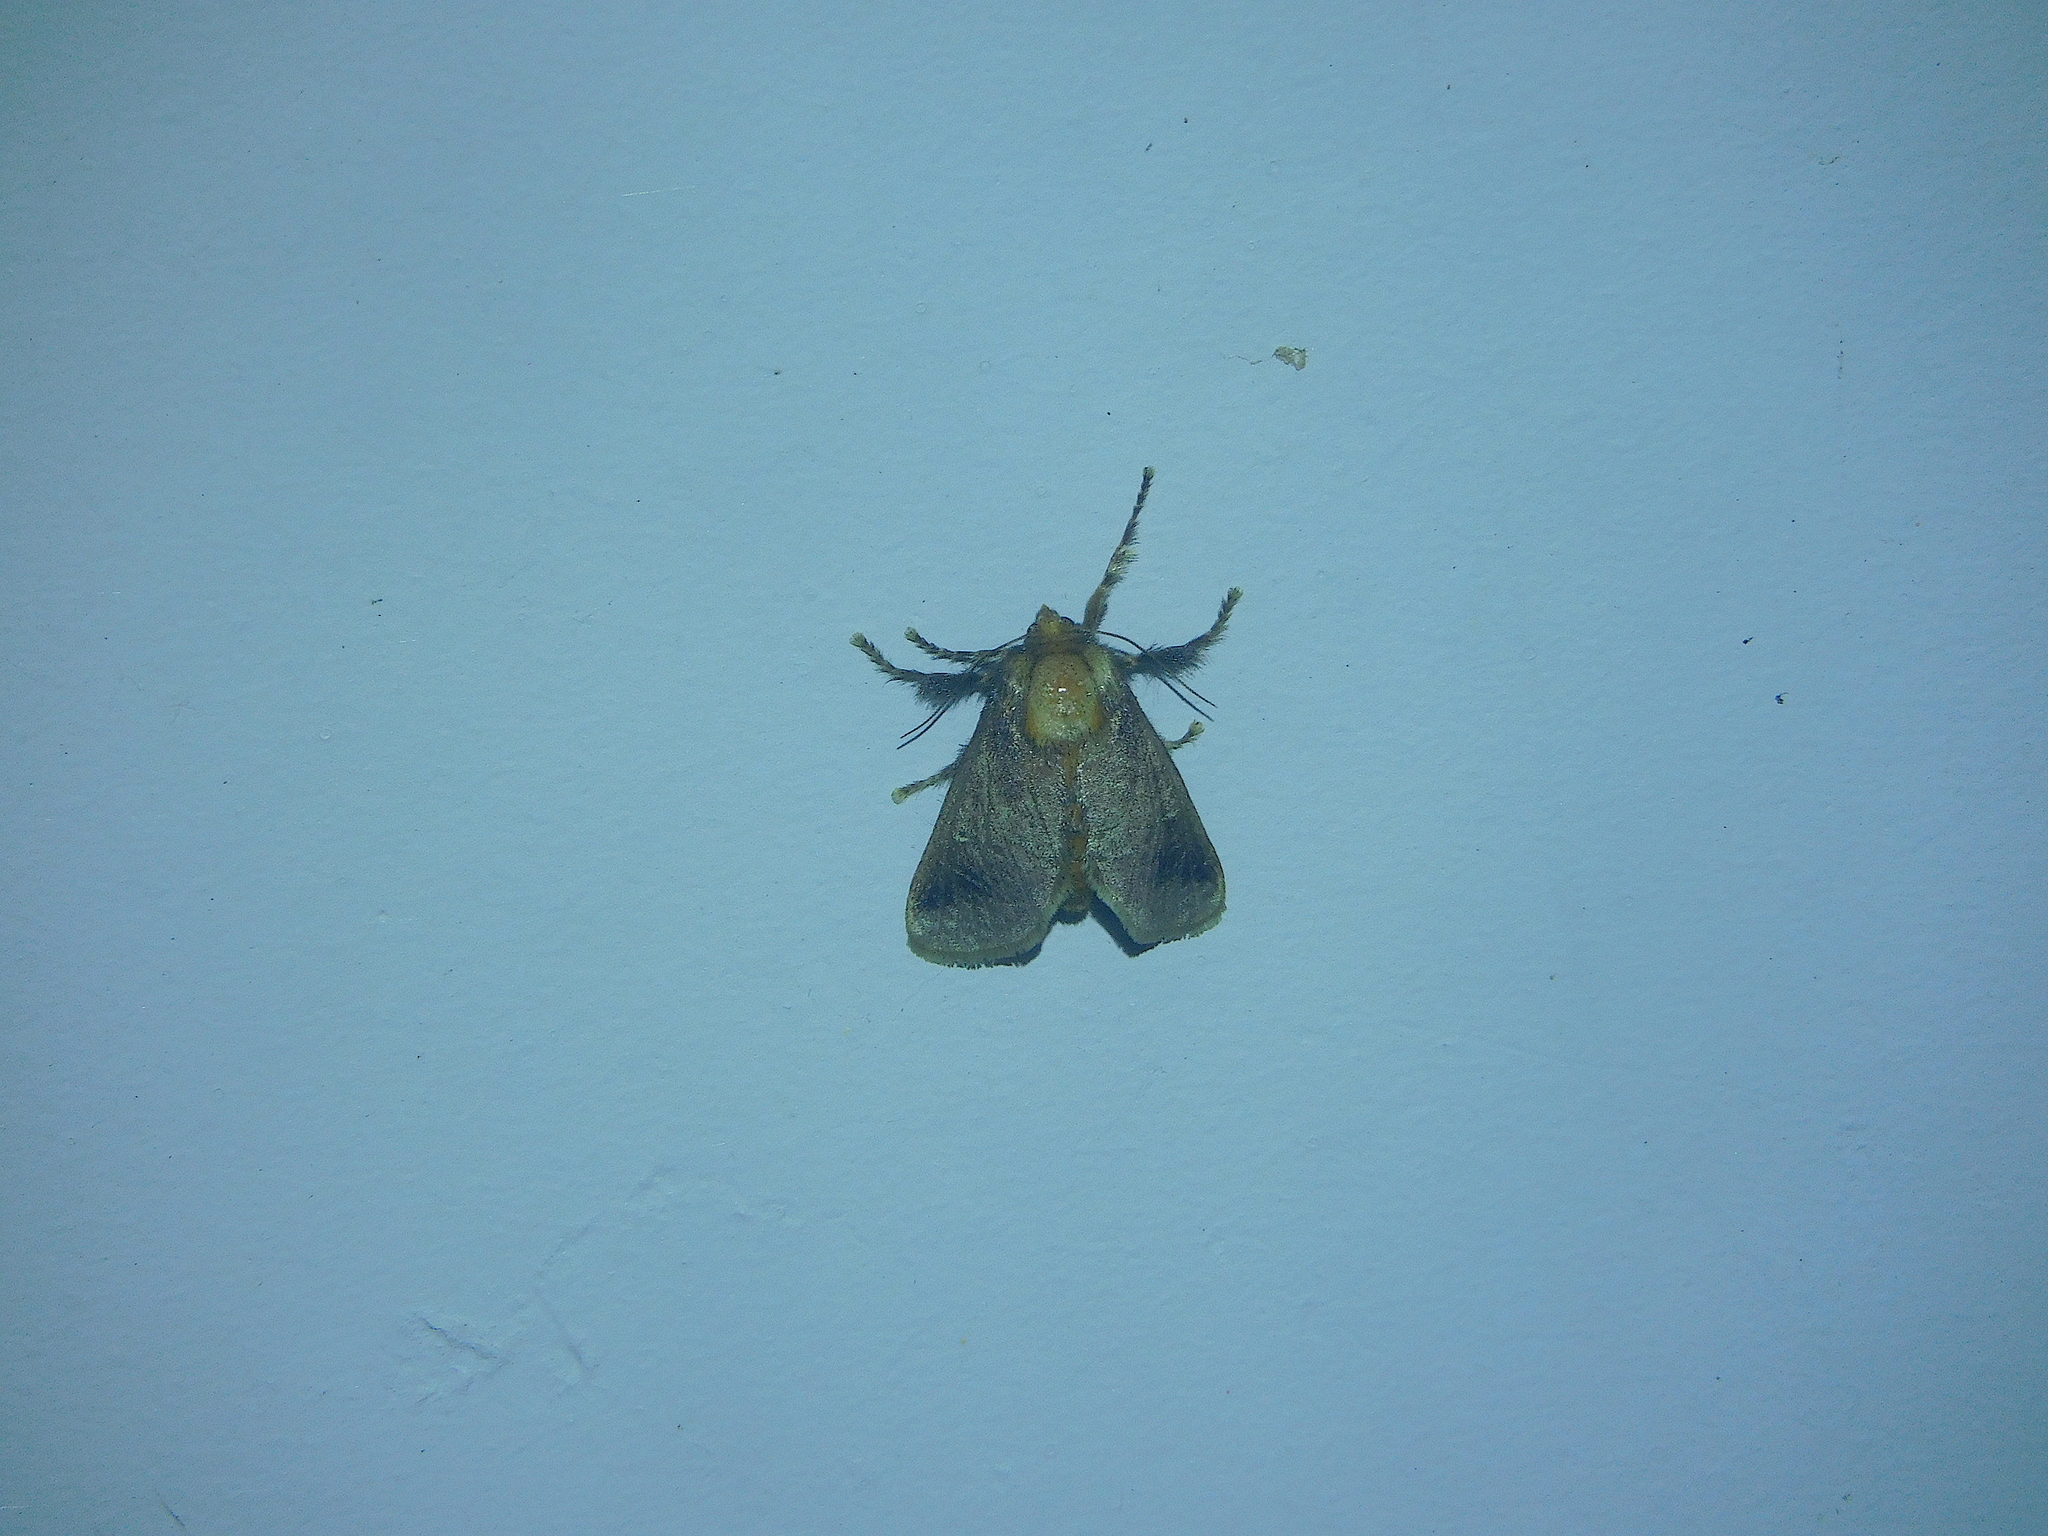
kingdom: Animalia
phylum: Arthropoda
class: Insecta
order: Lepidoptera
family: Limacodidae
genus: Doratifera
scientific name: Doratifera oxleyi
